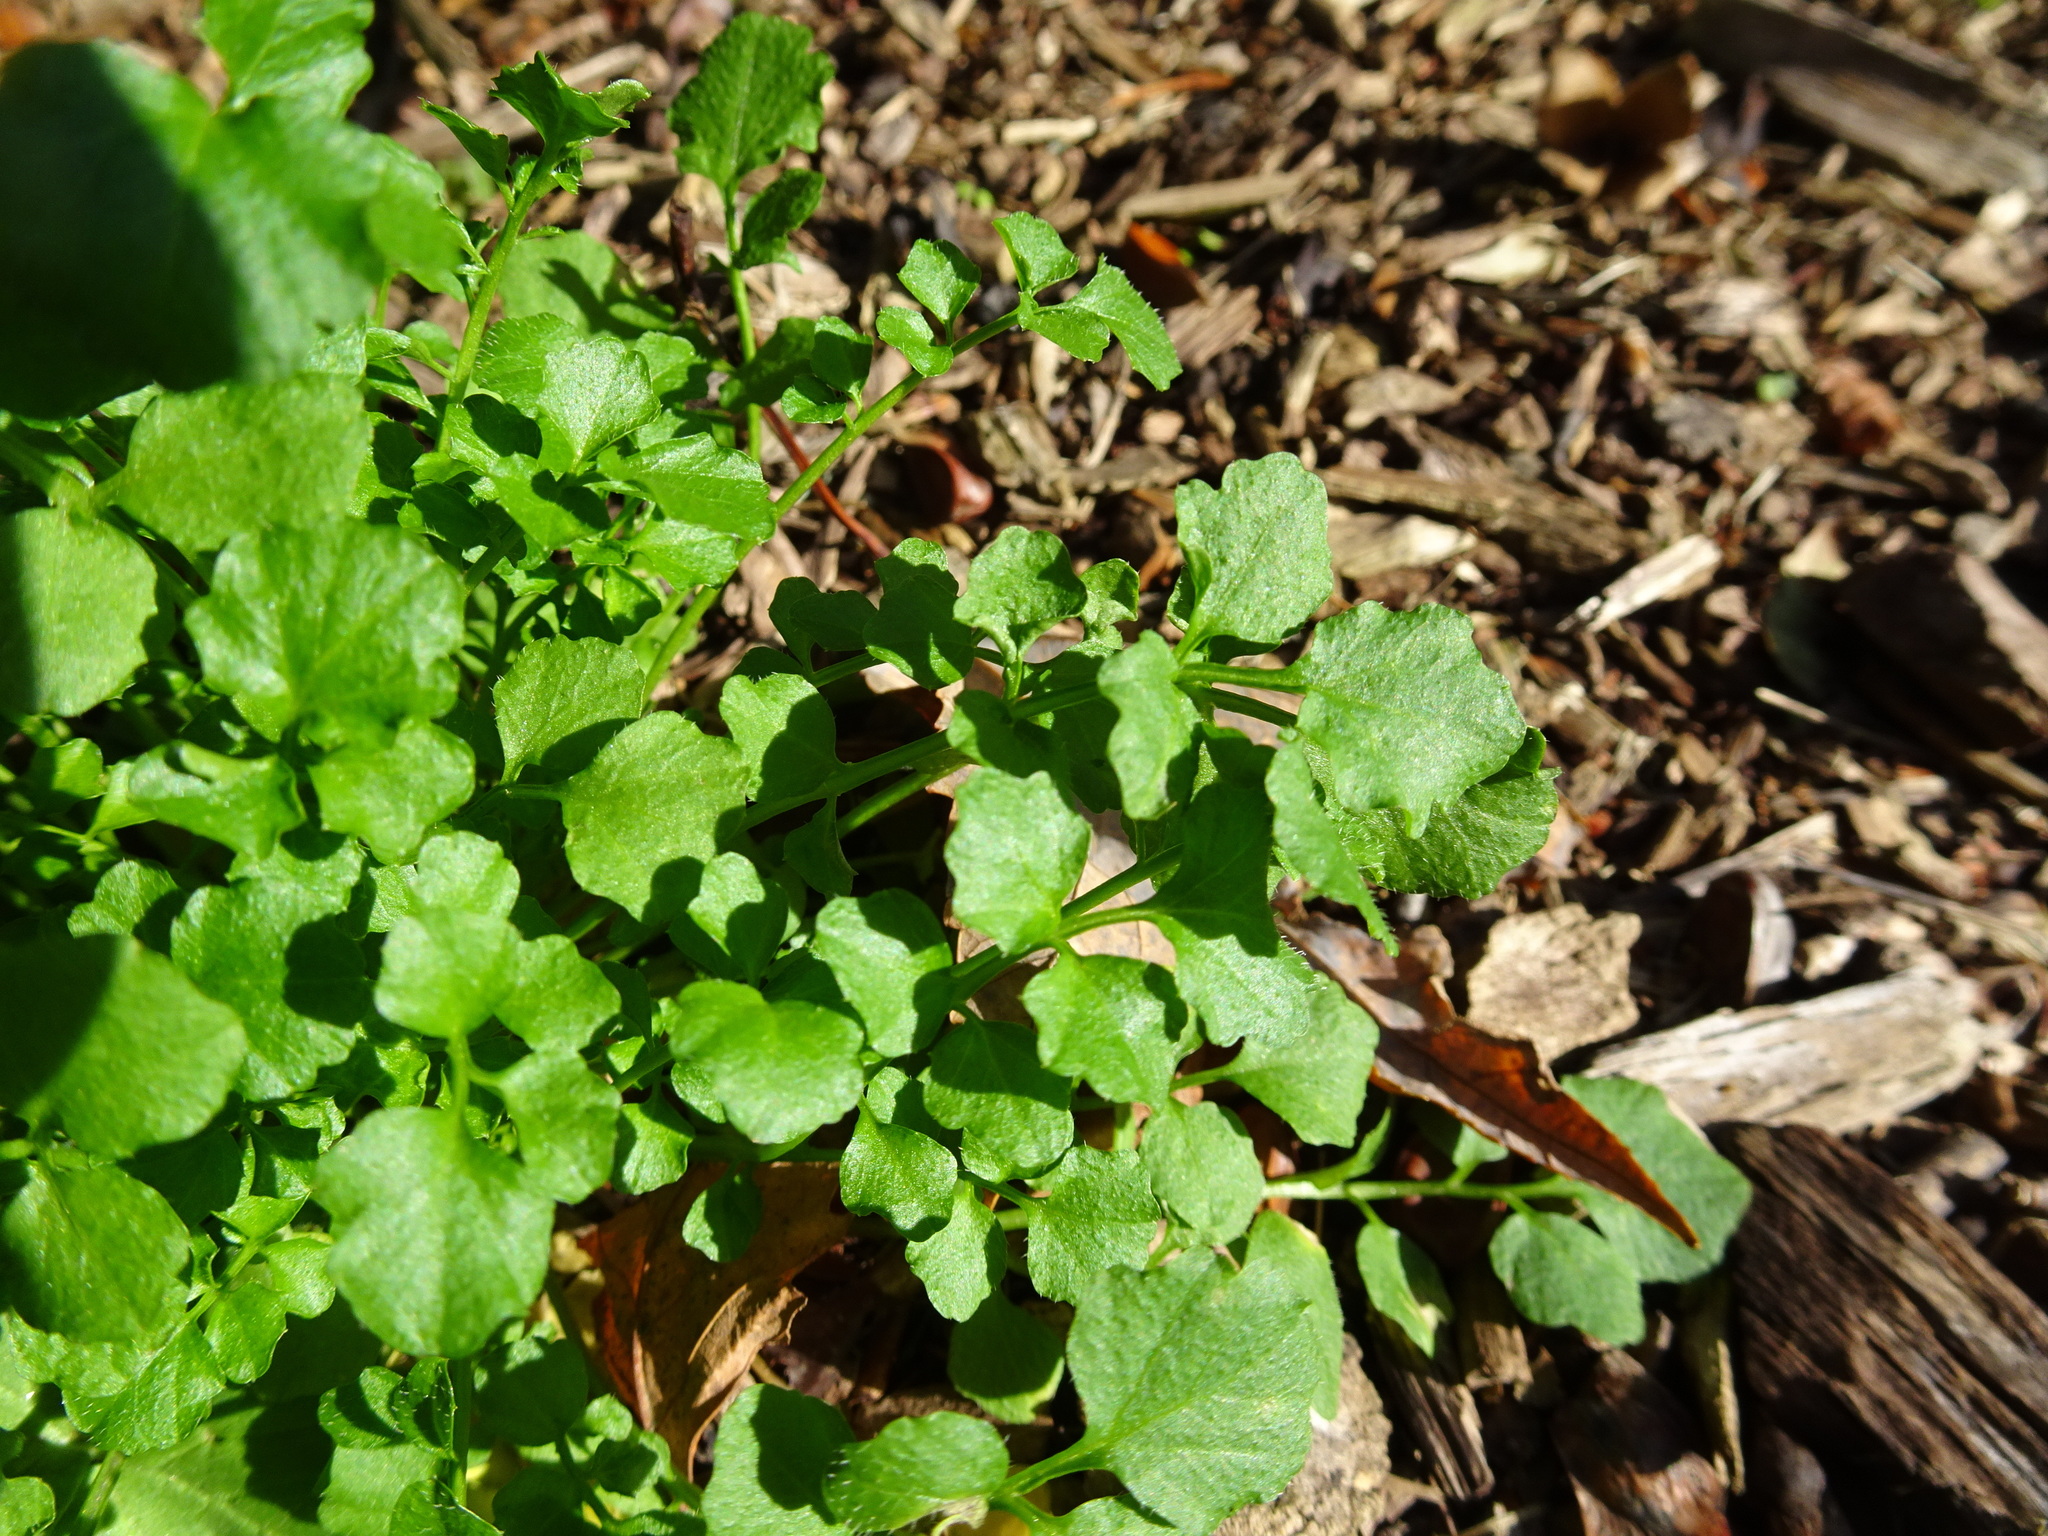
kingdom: Plantae
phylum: Tracheophyta
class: Magnoliopsida
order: Brassicales
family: Brassicaceae
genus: Cardamine
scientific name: Cardamine hirsuta
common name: Hairy bittercress
